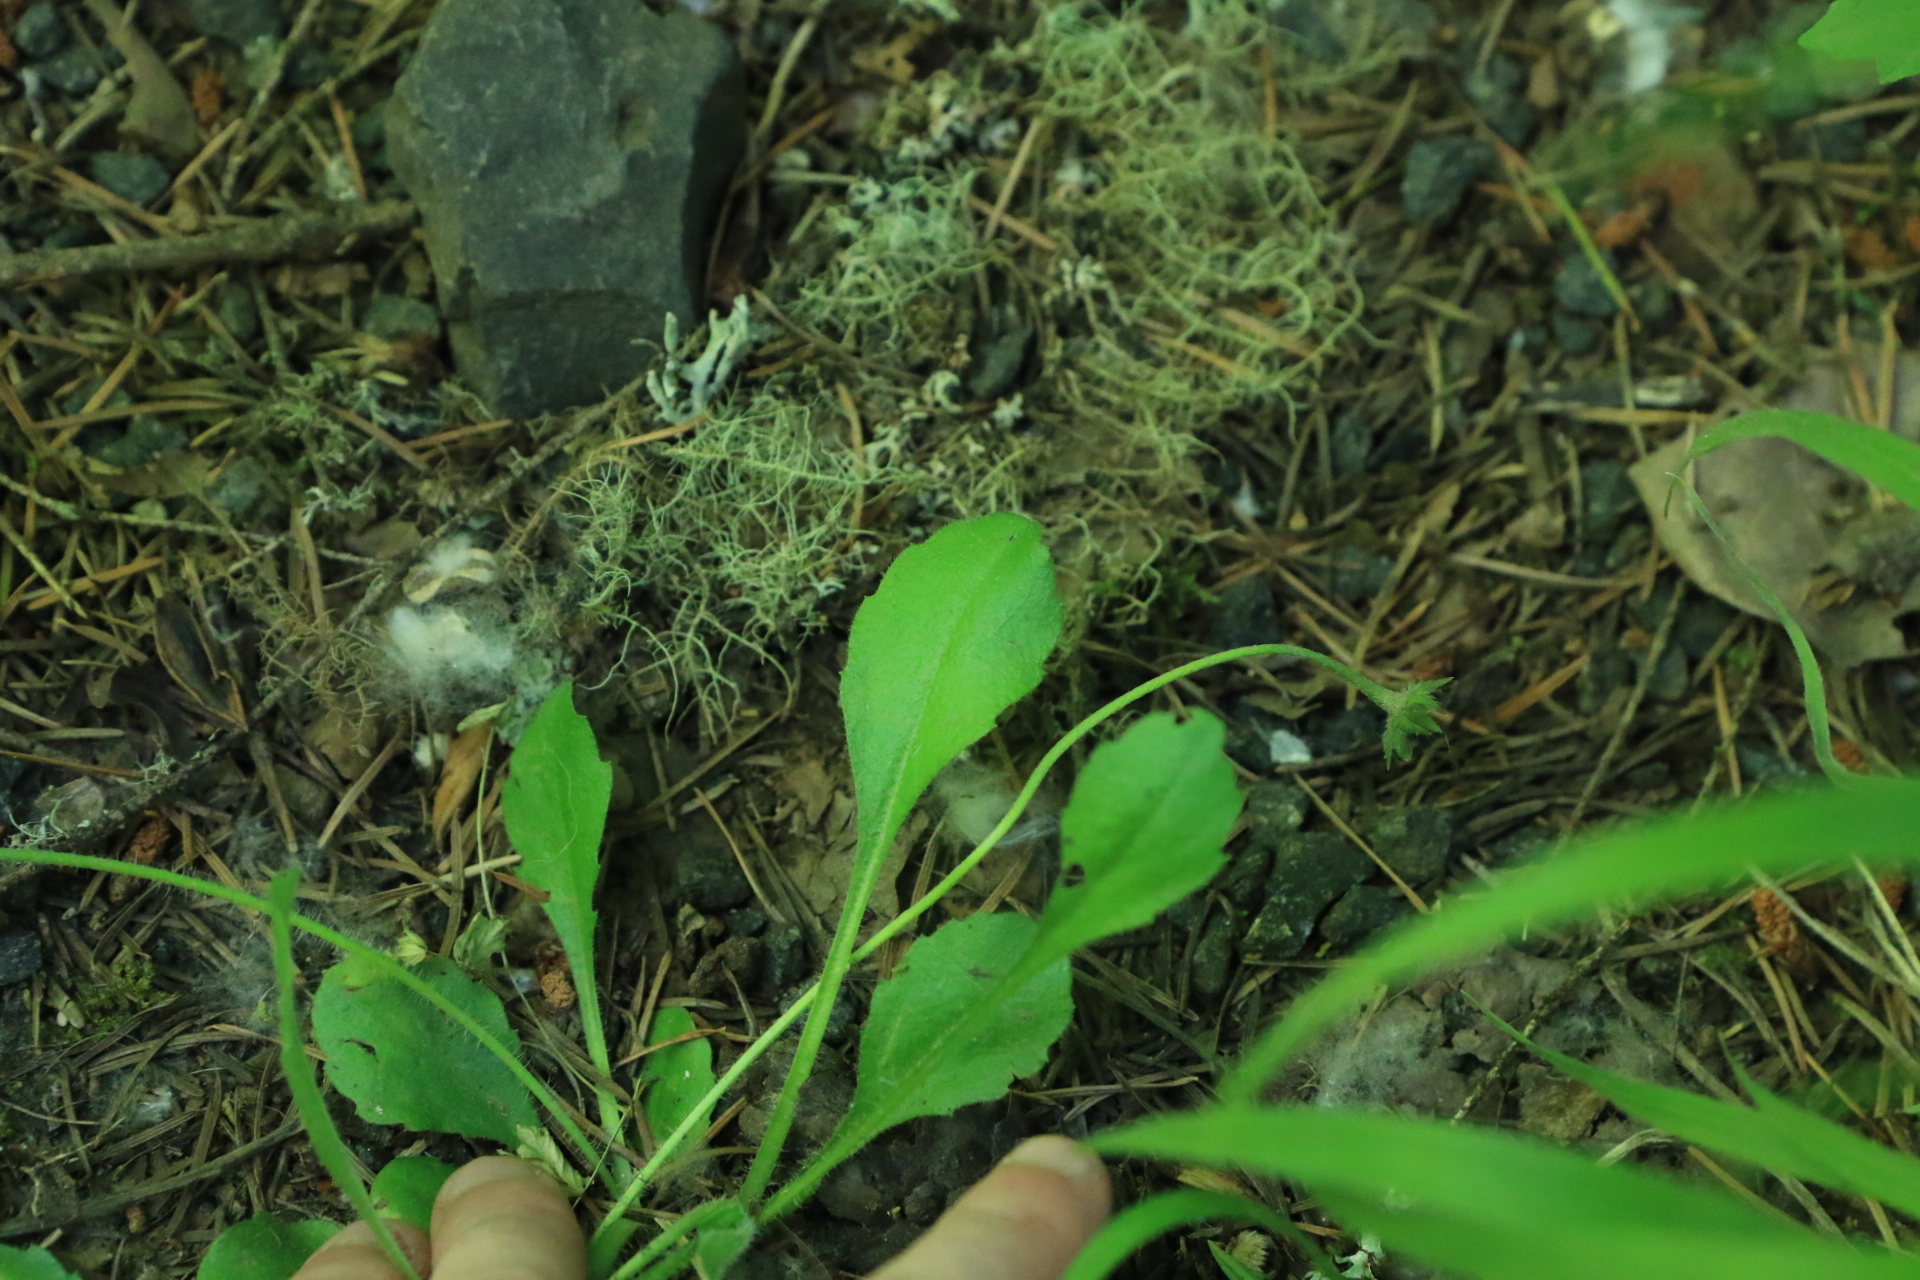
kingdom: Plantae
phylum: Tracheophyta
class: Magnoliopsida
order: Asterales
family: Asteraceae
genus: Bellis
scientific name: Bellis perennis
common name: Lawndaisy
